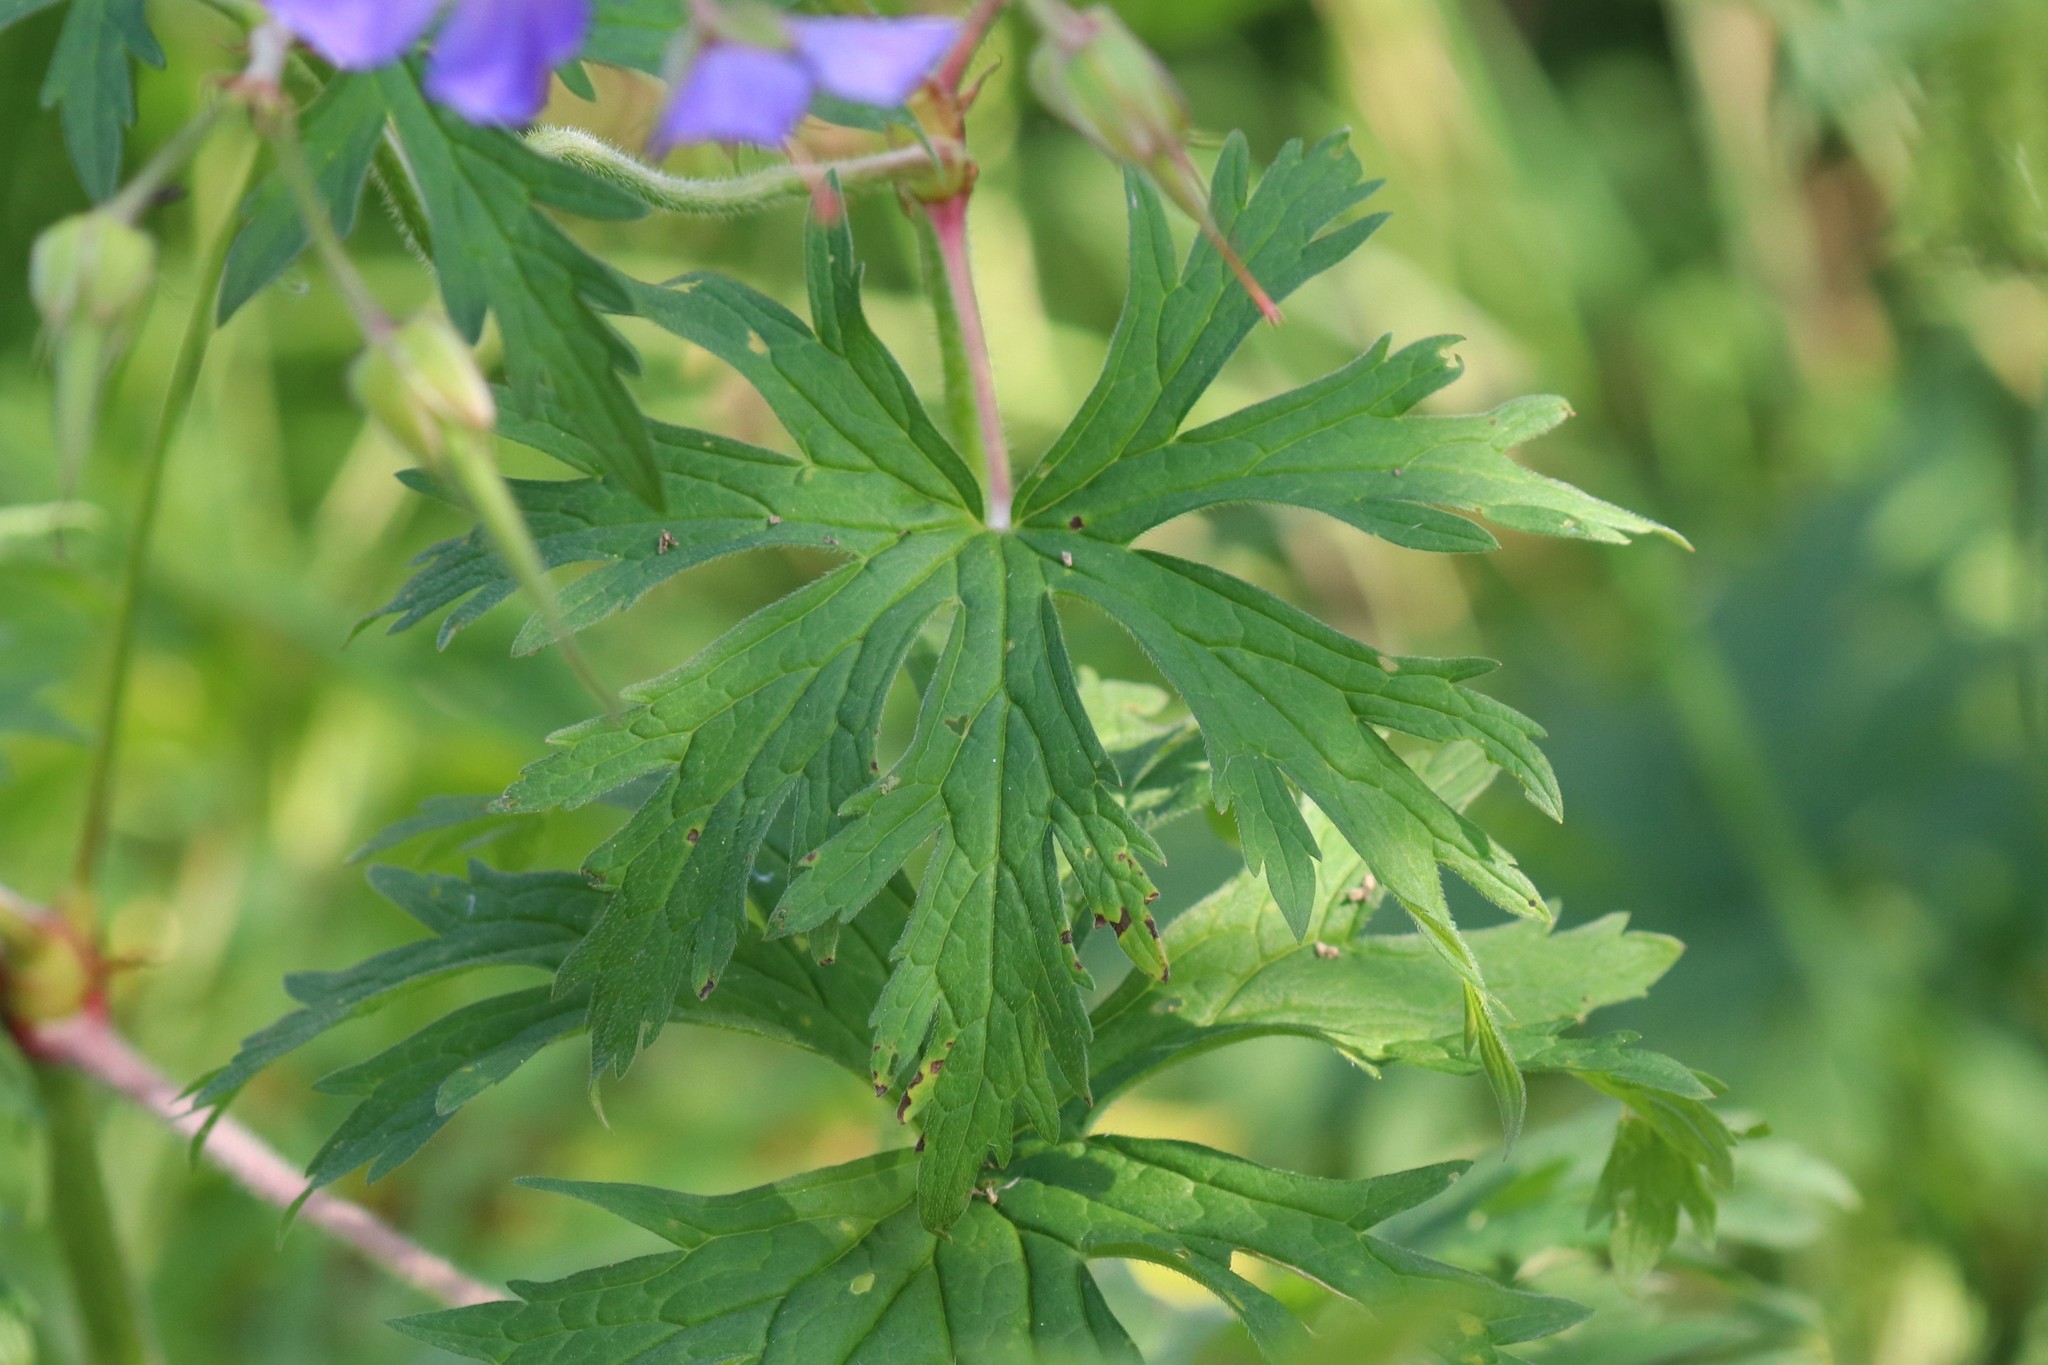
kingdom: Plantae
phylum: Tracheophyta
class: Magnoliopsida
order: Geraniales
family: Geraniaceae
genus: Geranium
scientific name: Geranium pratense
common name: Meadow crane's-bill
